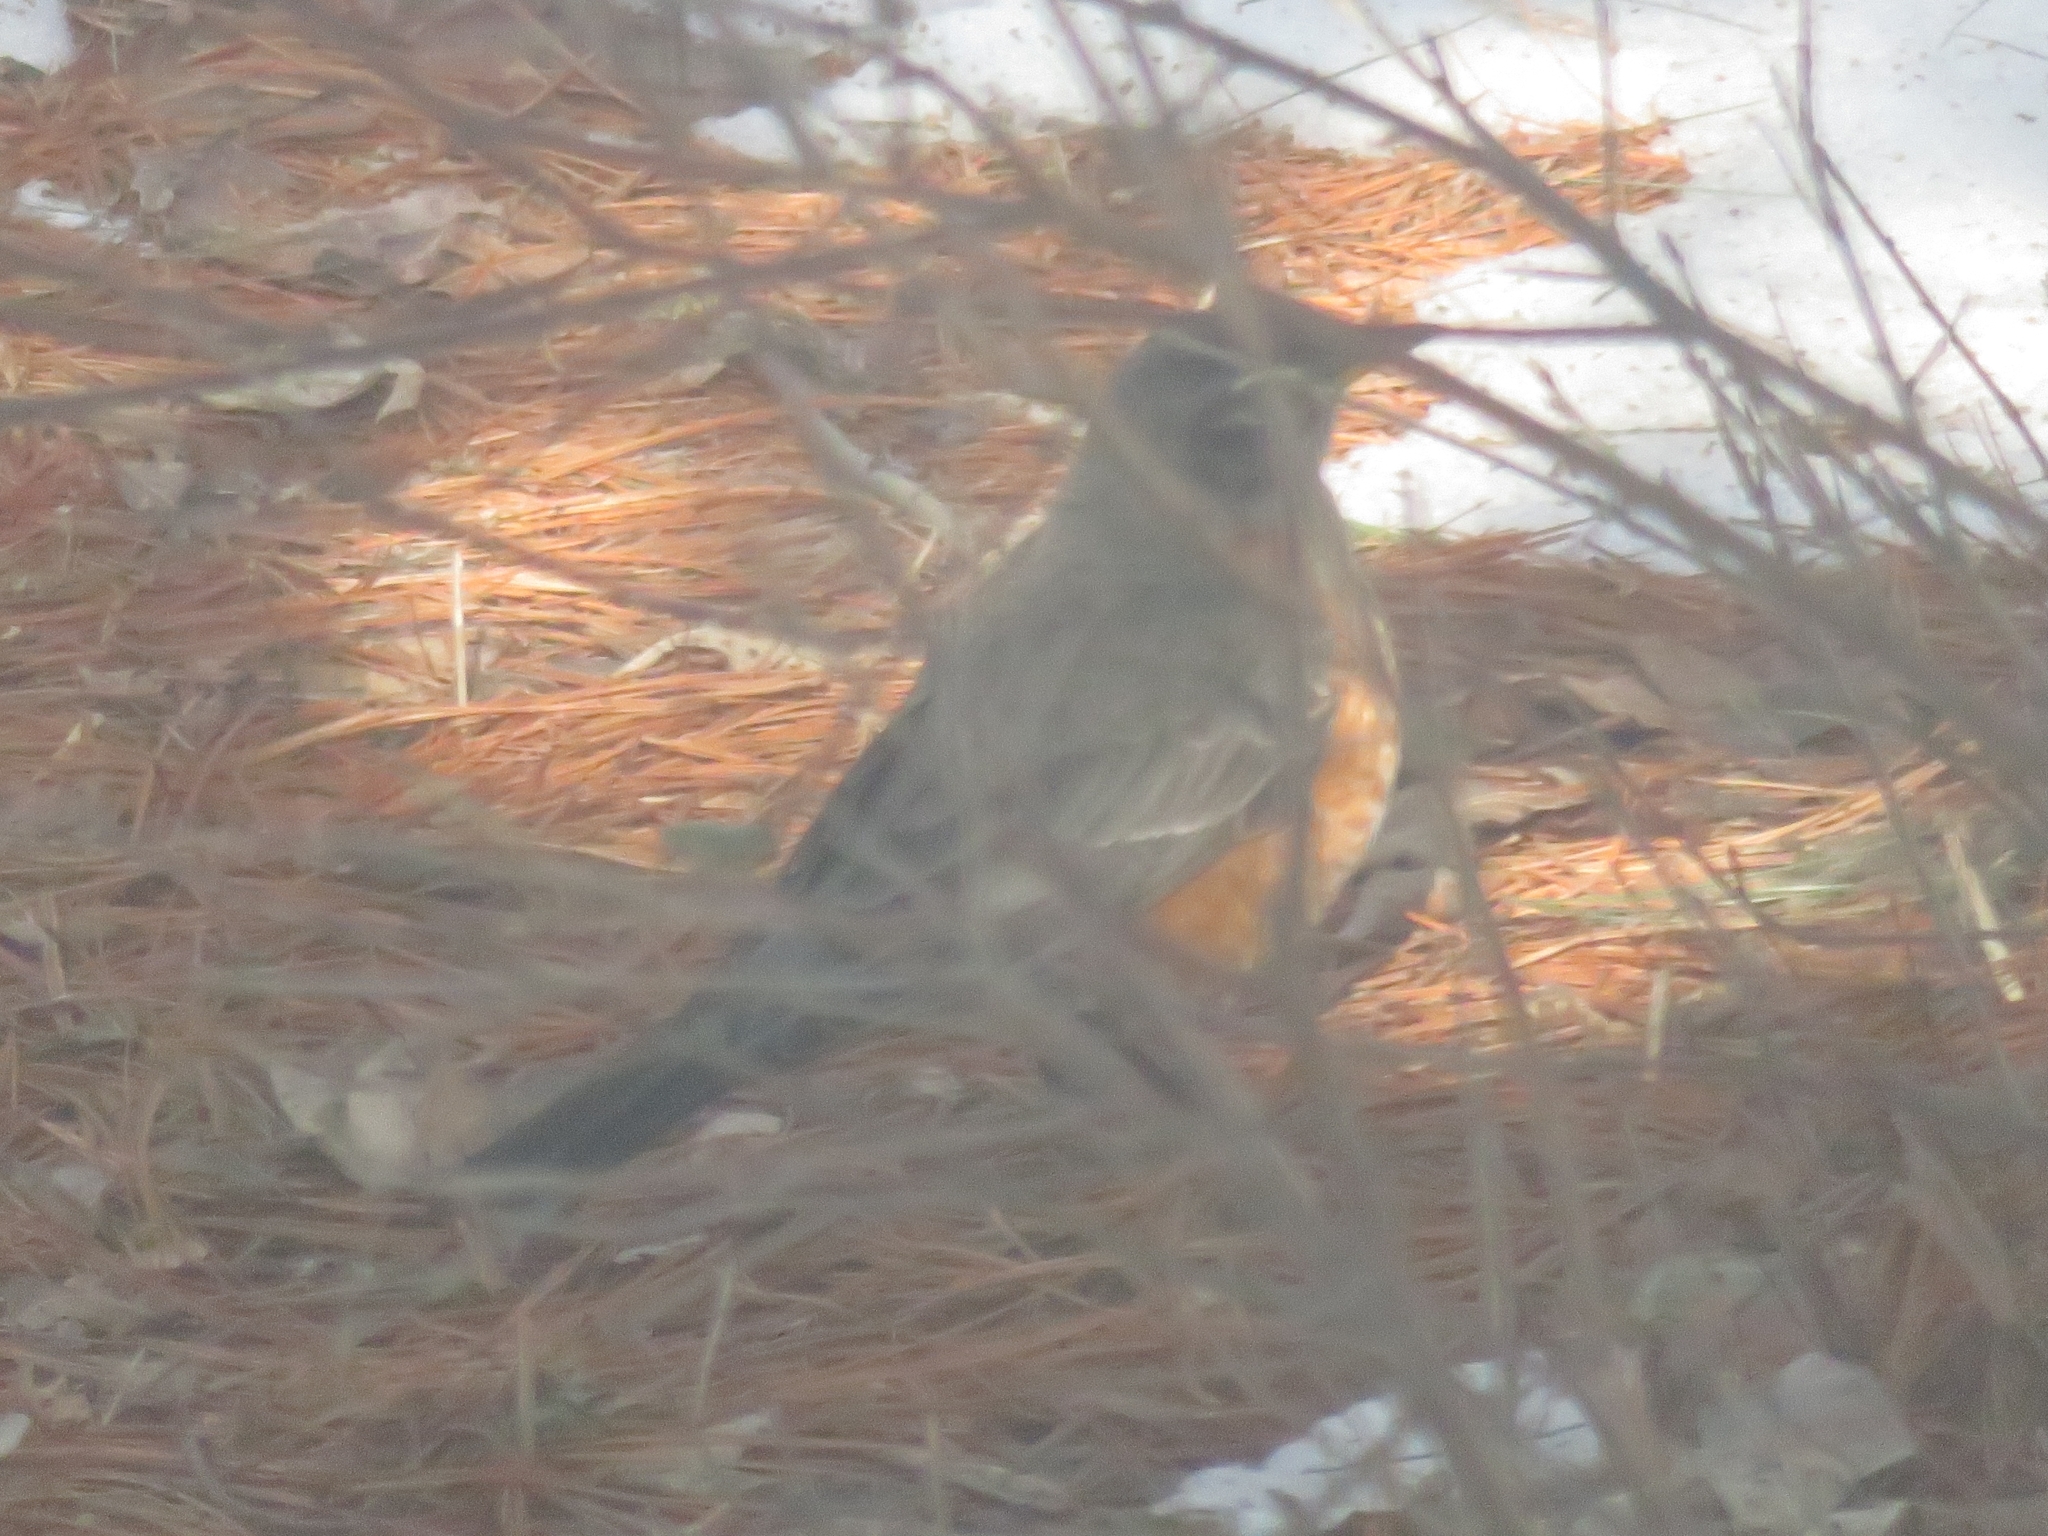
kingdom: Animalia
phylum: Chordata
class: Aves
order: Passeriformes
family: Turdidae
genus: Turdus
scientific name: Turdus migratorius
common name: American robin
